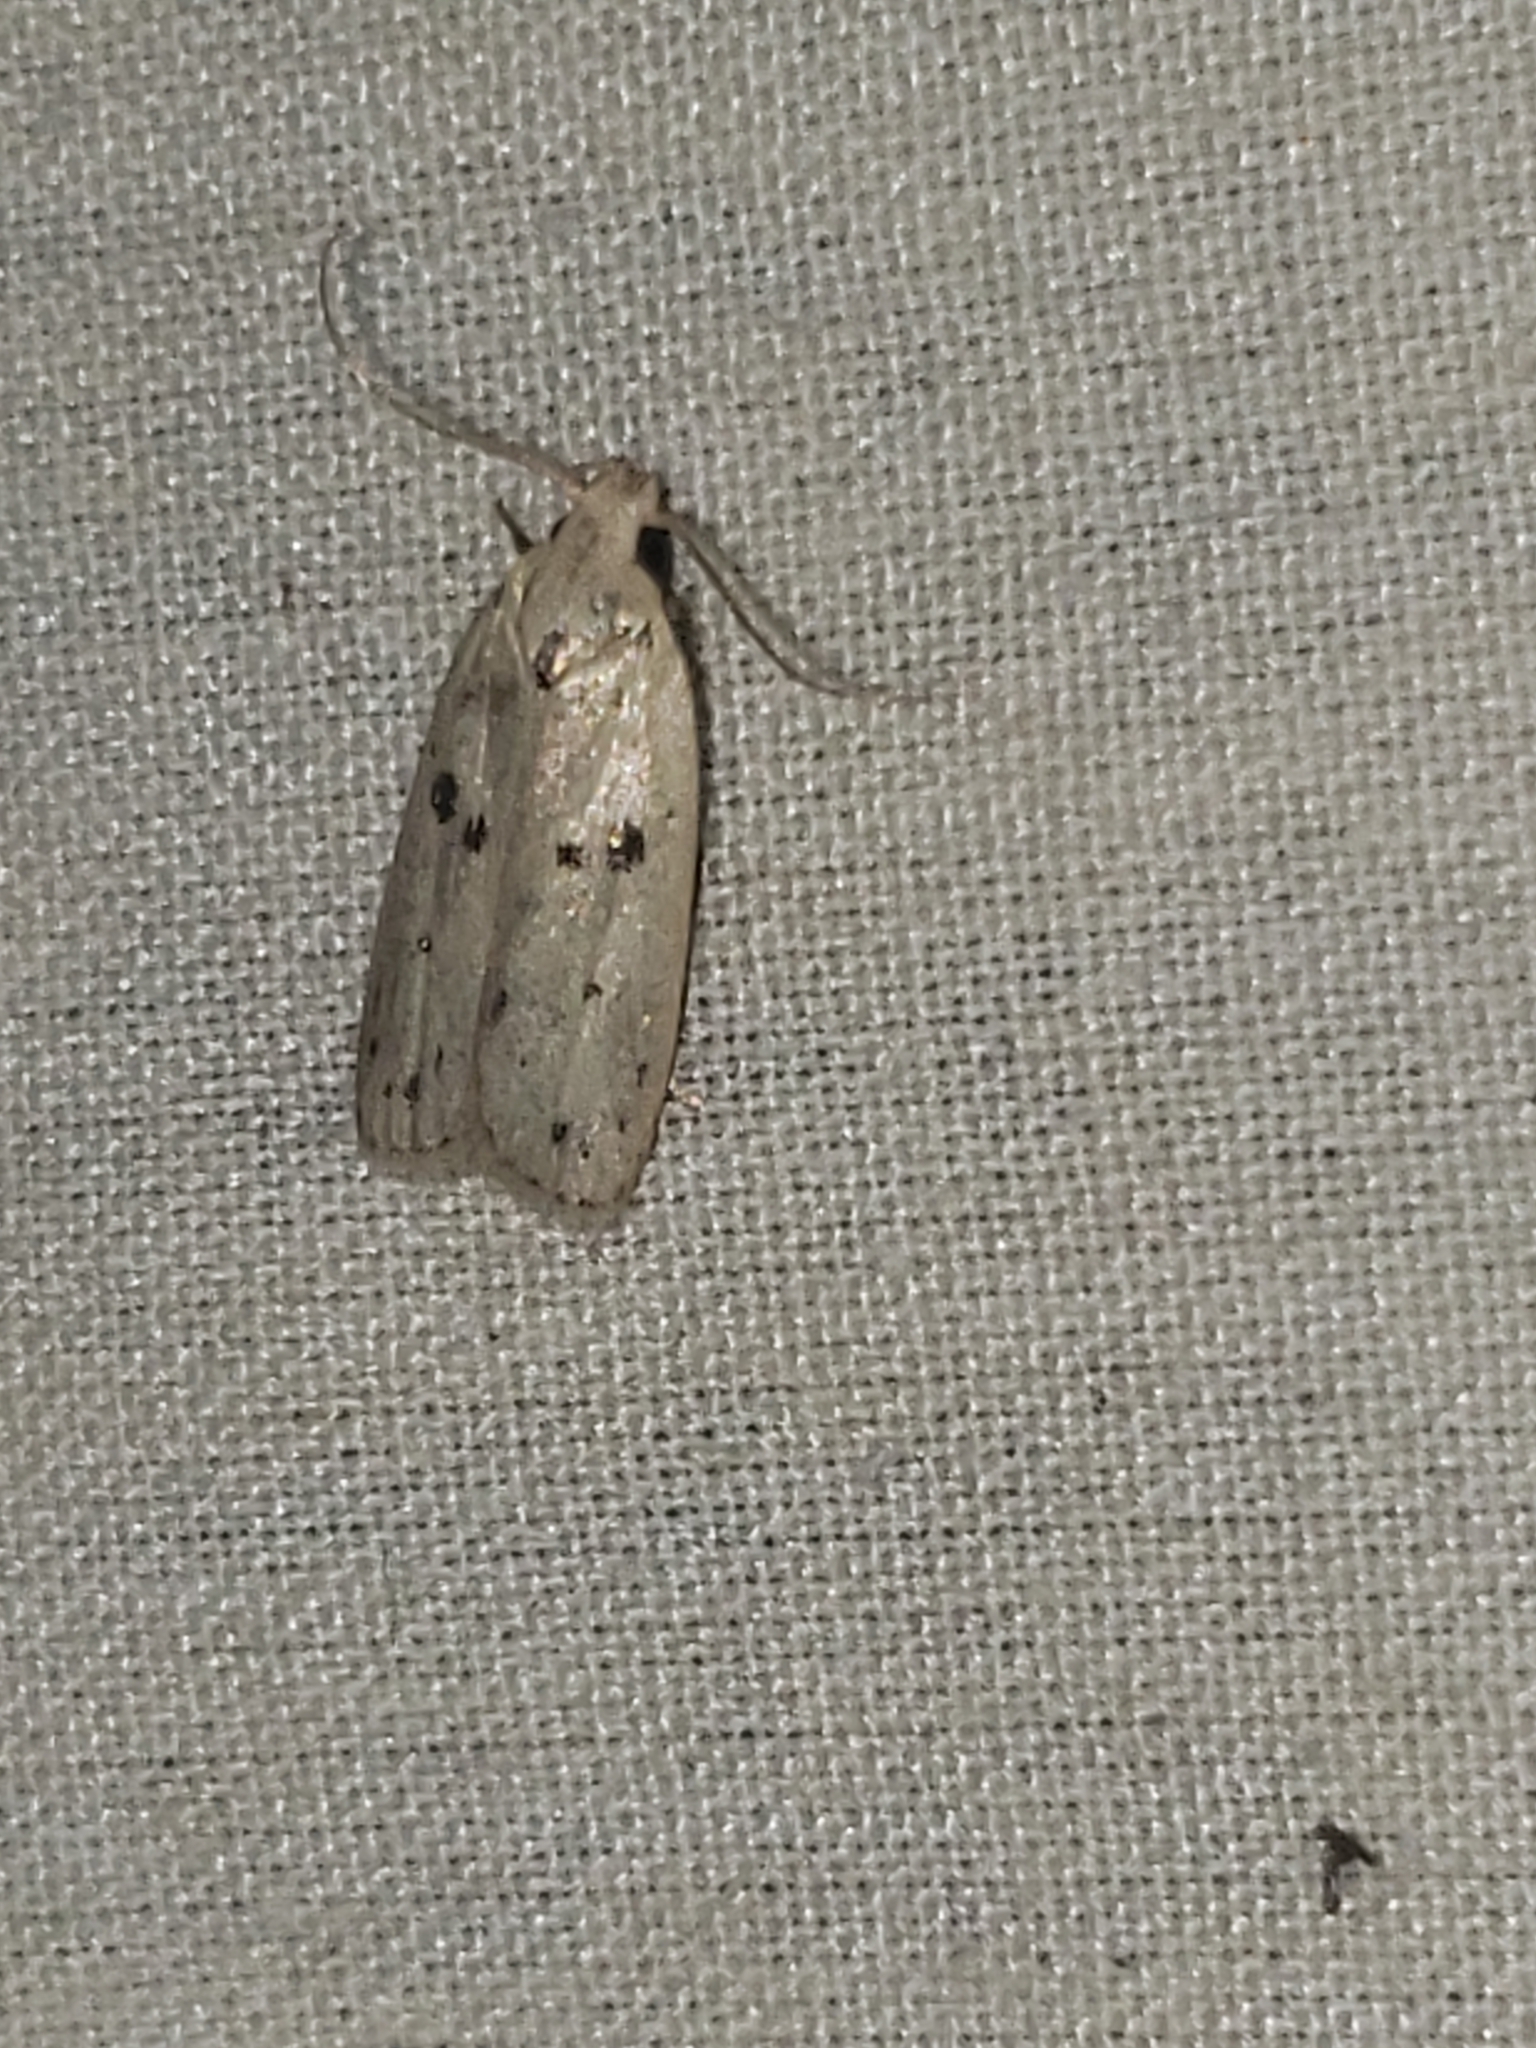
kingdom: Animalia
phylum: Arthropoda
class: Insecta
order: Lepidoptera
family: Peleopodidae
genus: Scythropiodes
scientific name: Scythropiodes issikii
